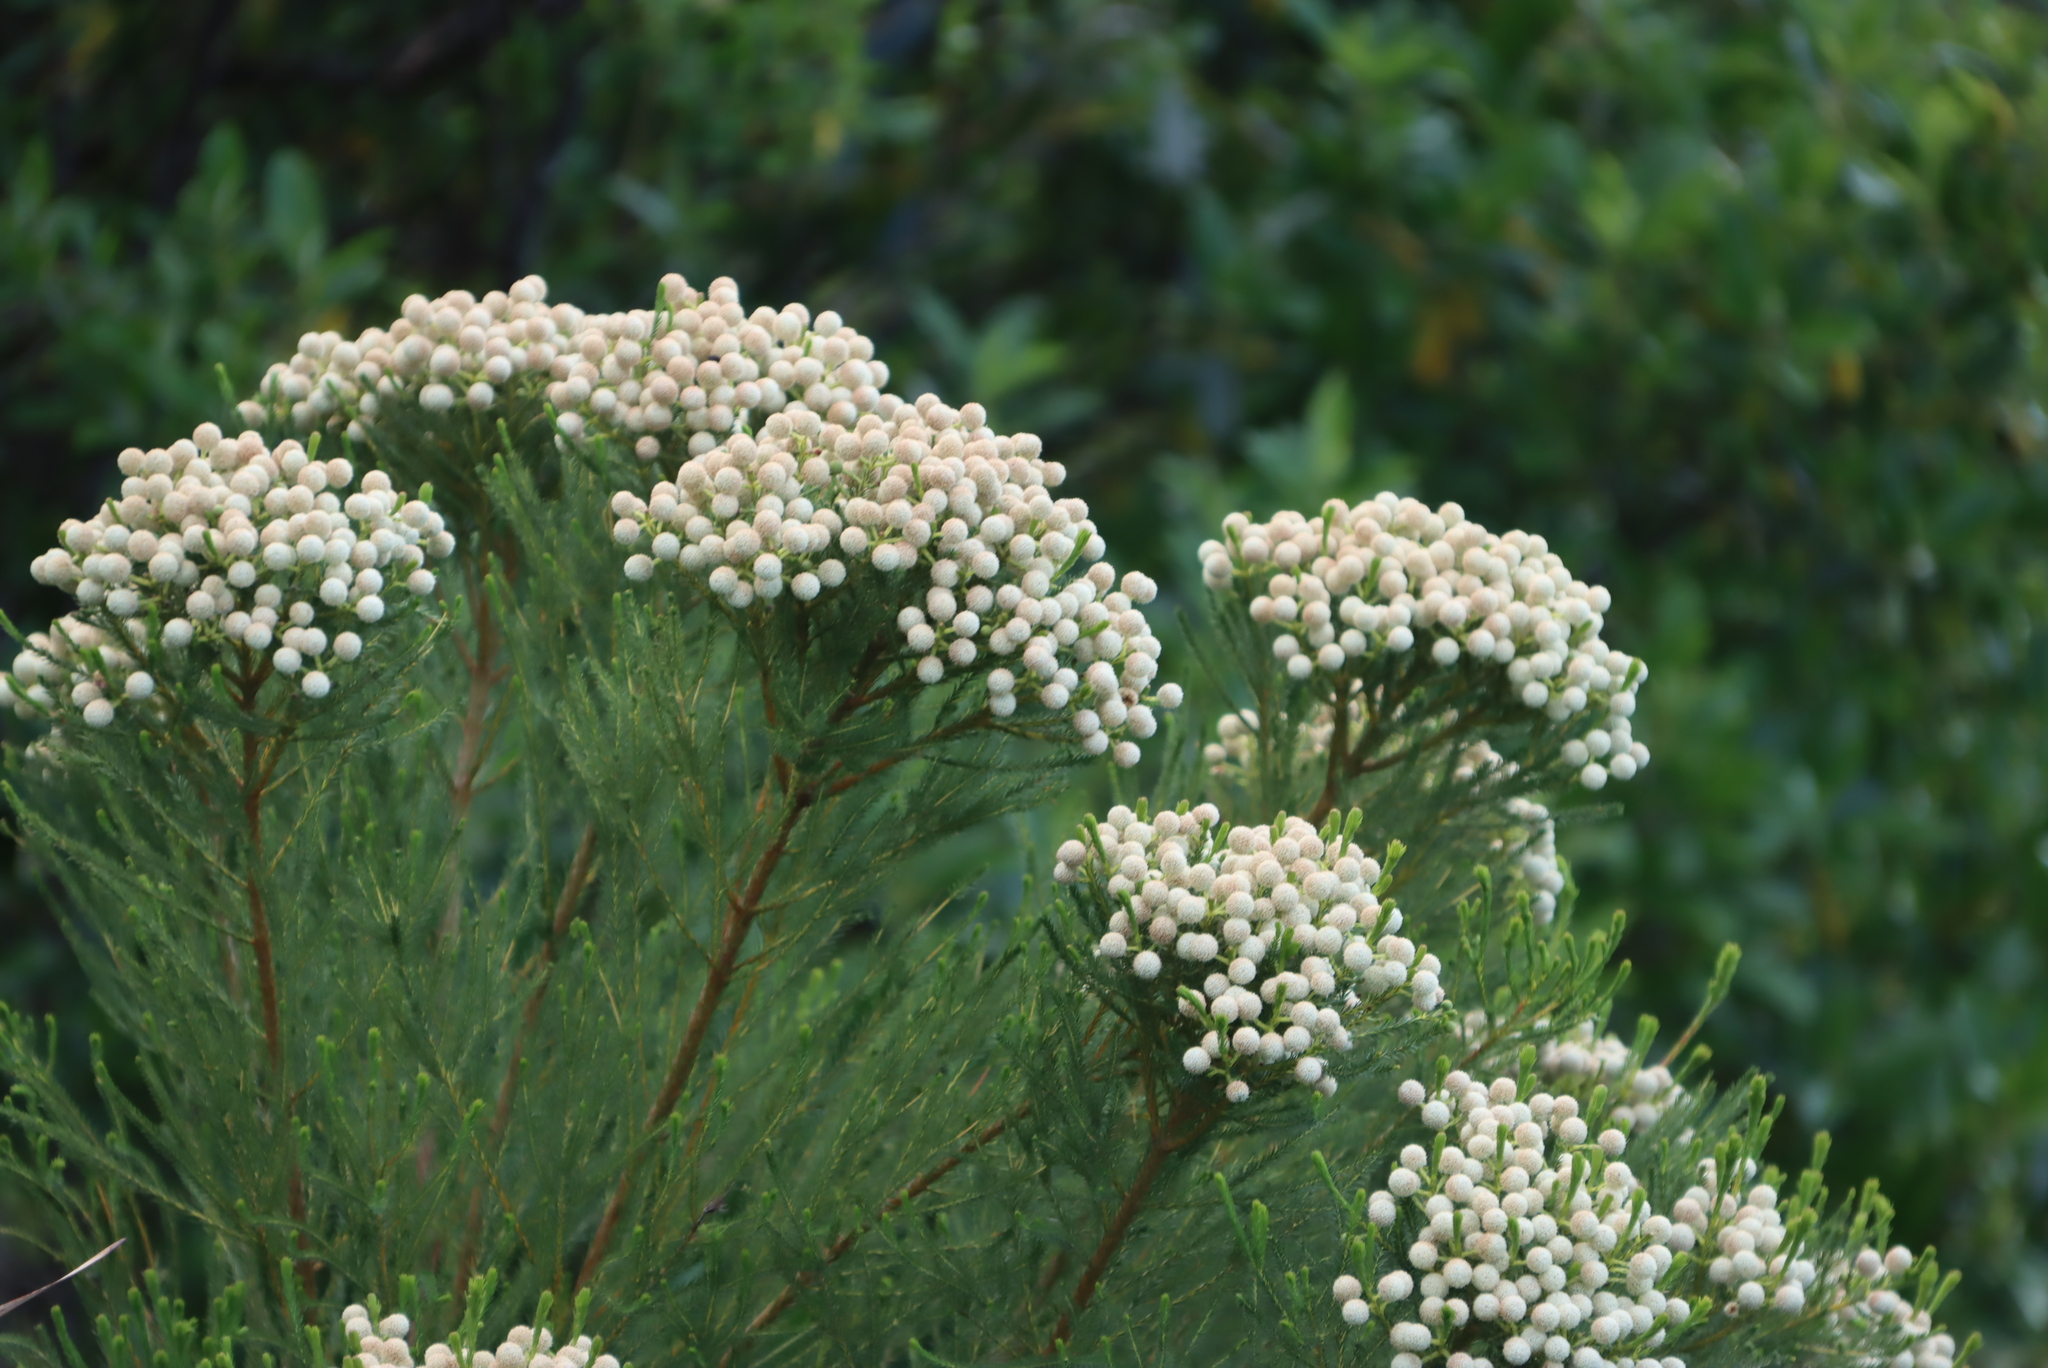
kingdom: Plantae
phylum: Tracheophyta
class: Magnoliopsida
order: Bruniales
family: Bruniaceae
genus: Berzelia
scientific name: Berzelia lanuginosa
